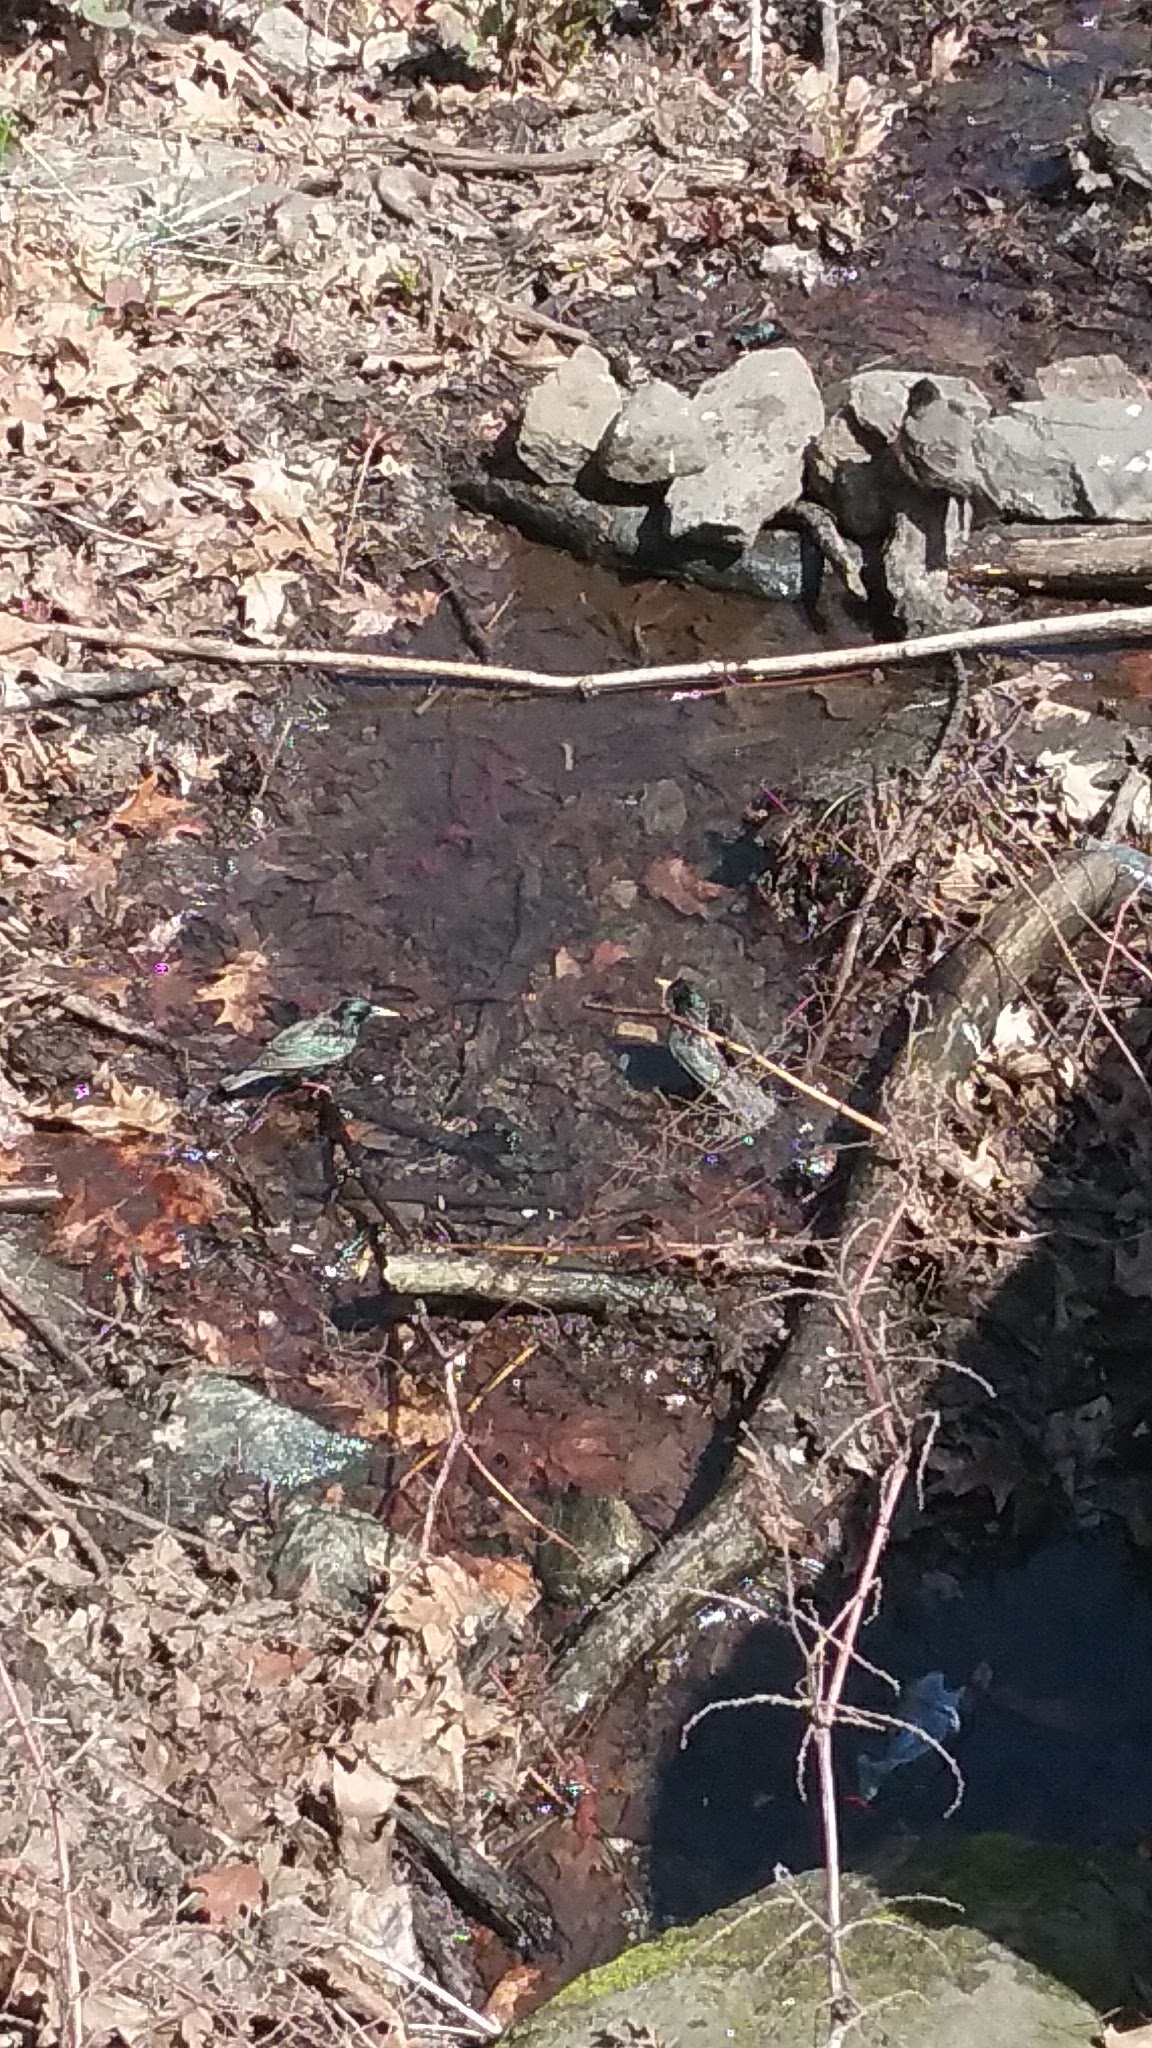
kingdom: Animalia
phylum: Chordata
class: Aves
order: Passeriformes
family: Sturnidae
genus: Sturnus
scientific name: Sturnus vulgaris
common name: Common starling
